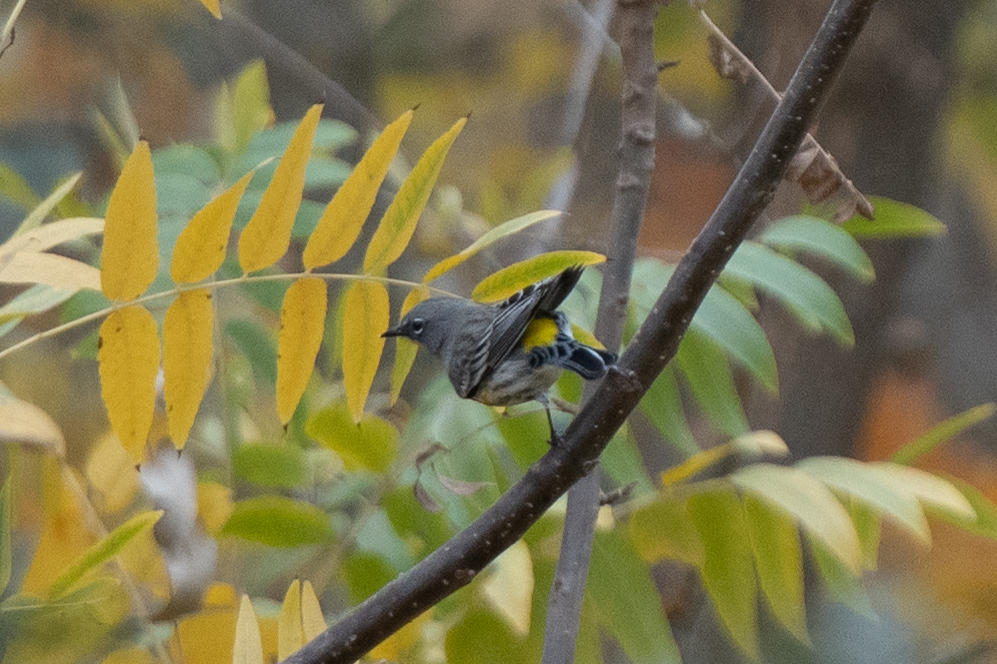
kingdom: Animalia
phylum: Chordata
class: Aves
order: Passeriformes
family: Parulidae
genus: Setophaga
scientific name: Setophaga coronata
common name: Myrtle warbler
